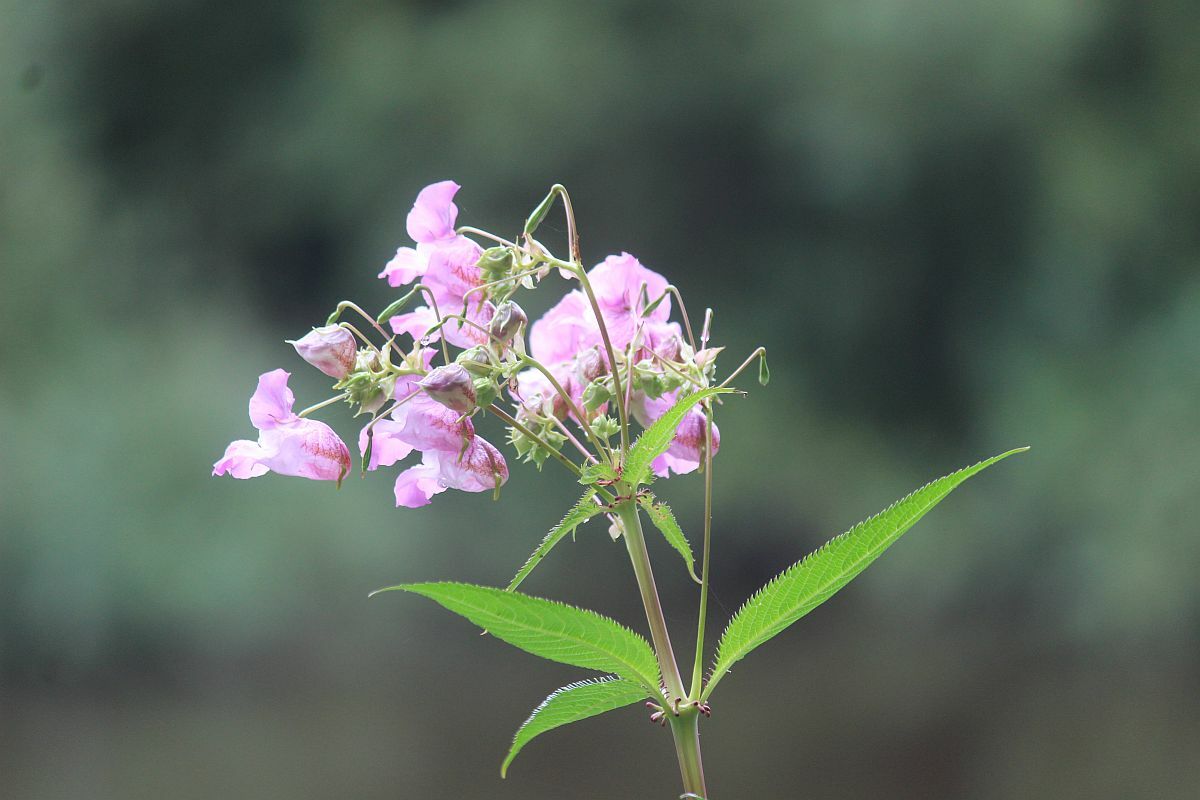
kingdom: Plantae
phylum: Tracheophyta
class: Magnoliopsida
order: Ericales
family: Balsaminaceae
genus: Impatiens
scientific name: Impatiens glandulifera
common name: Himalayan balsam
